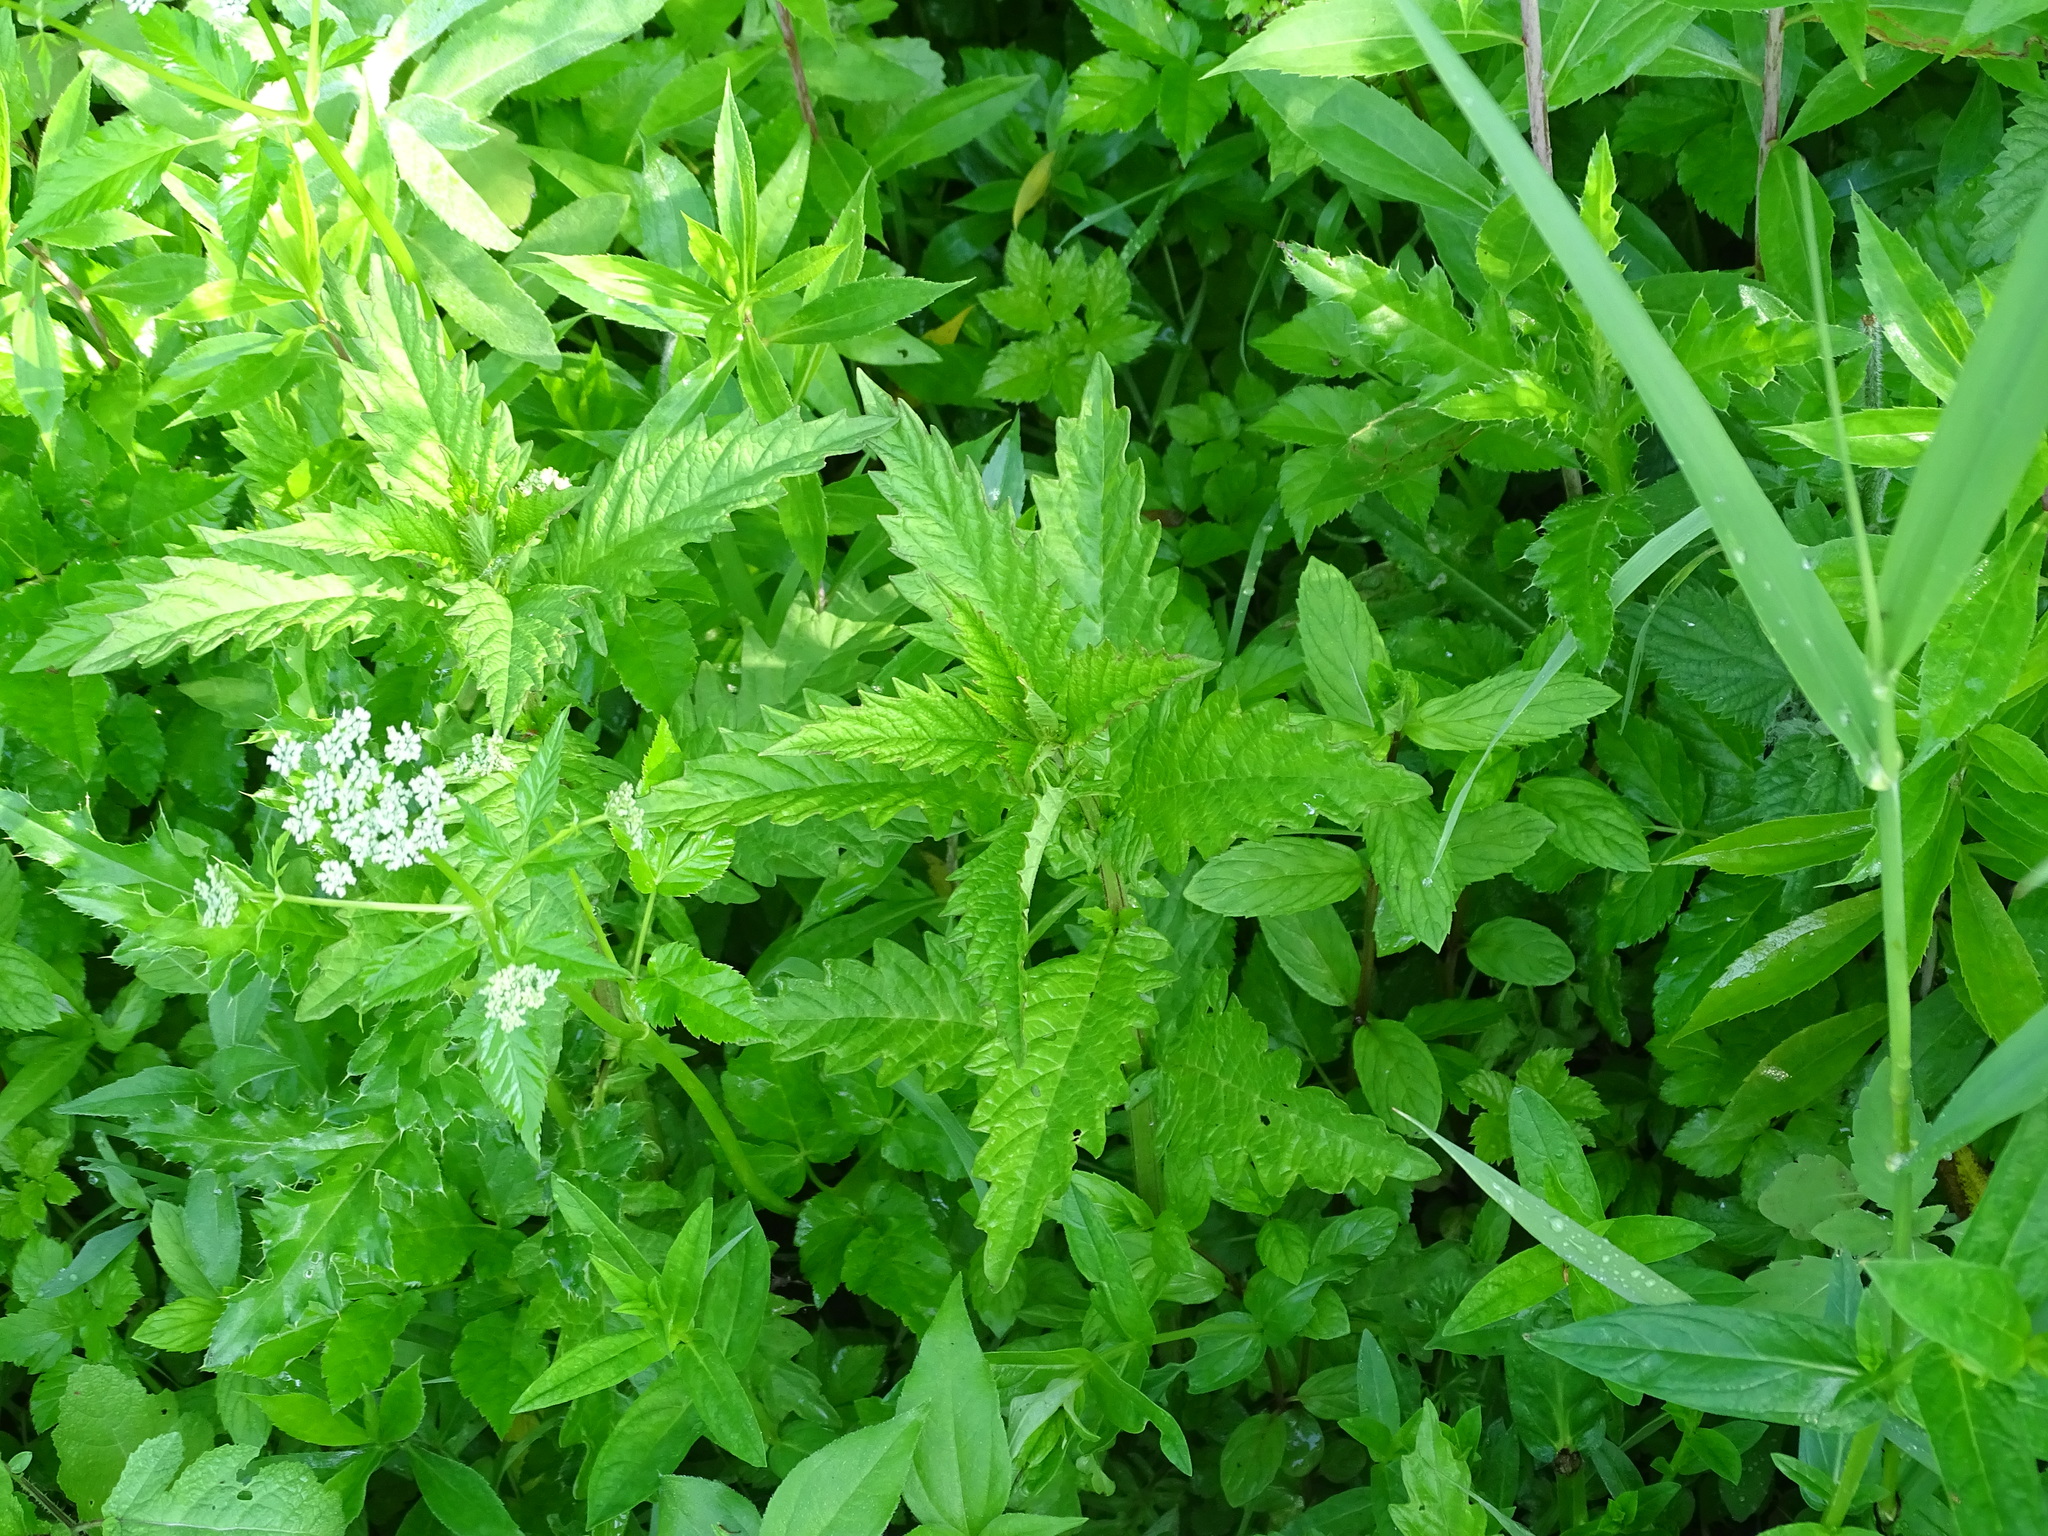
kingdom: Plantae
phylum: Tracheophyta
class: Magnoliopsida
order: Lamiales
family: Lamiaceae
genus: Lycopus
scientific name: Lycopus europaeus
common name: European bugleweed
